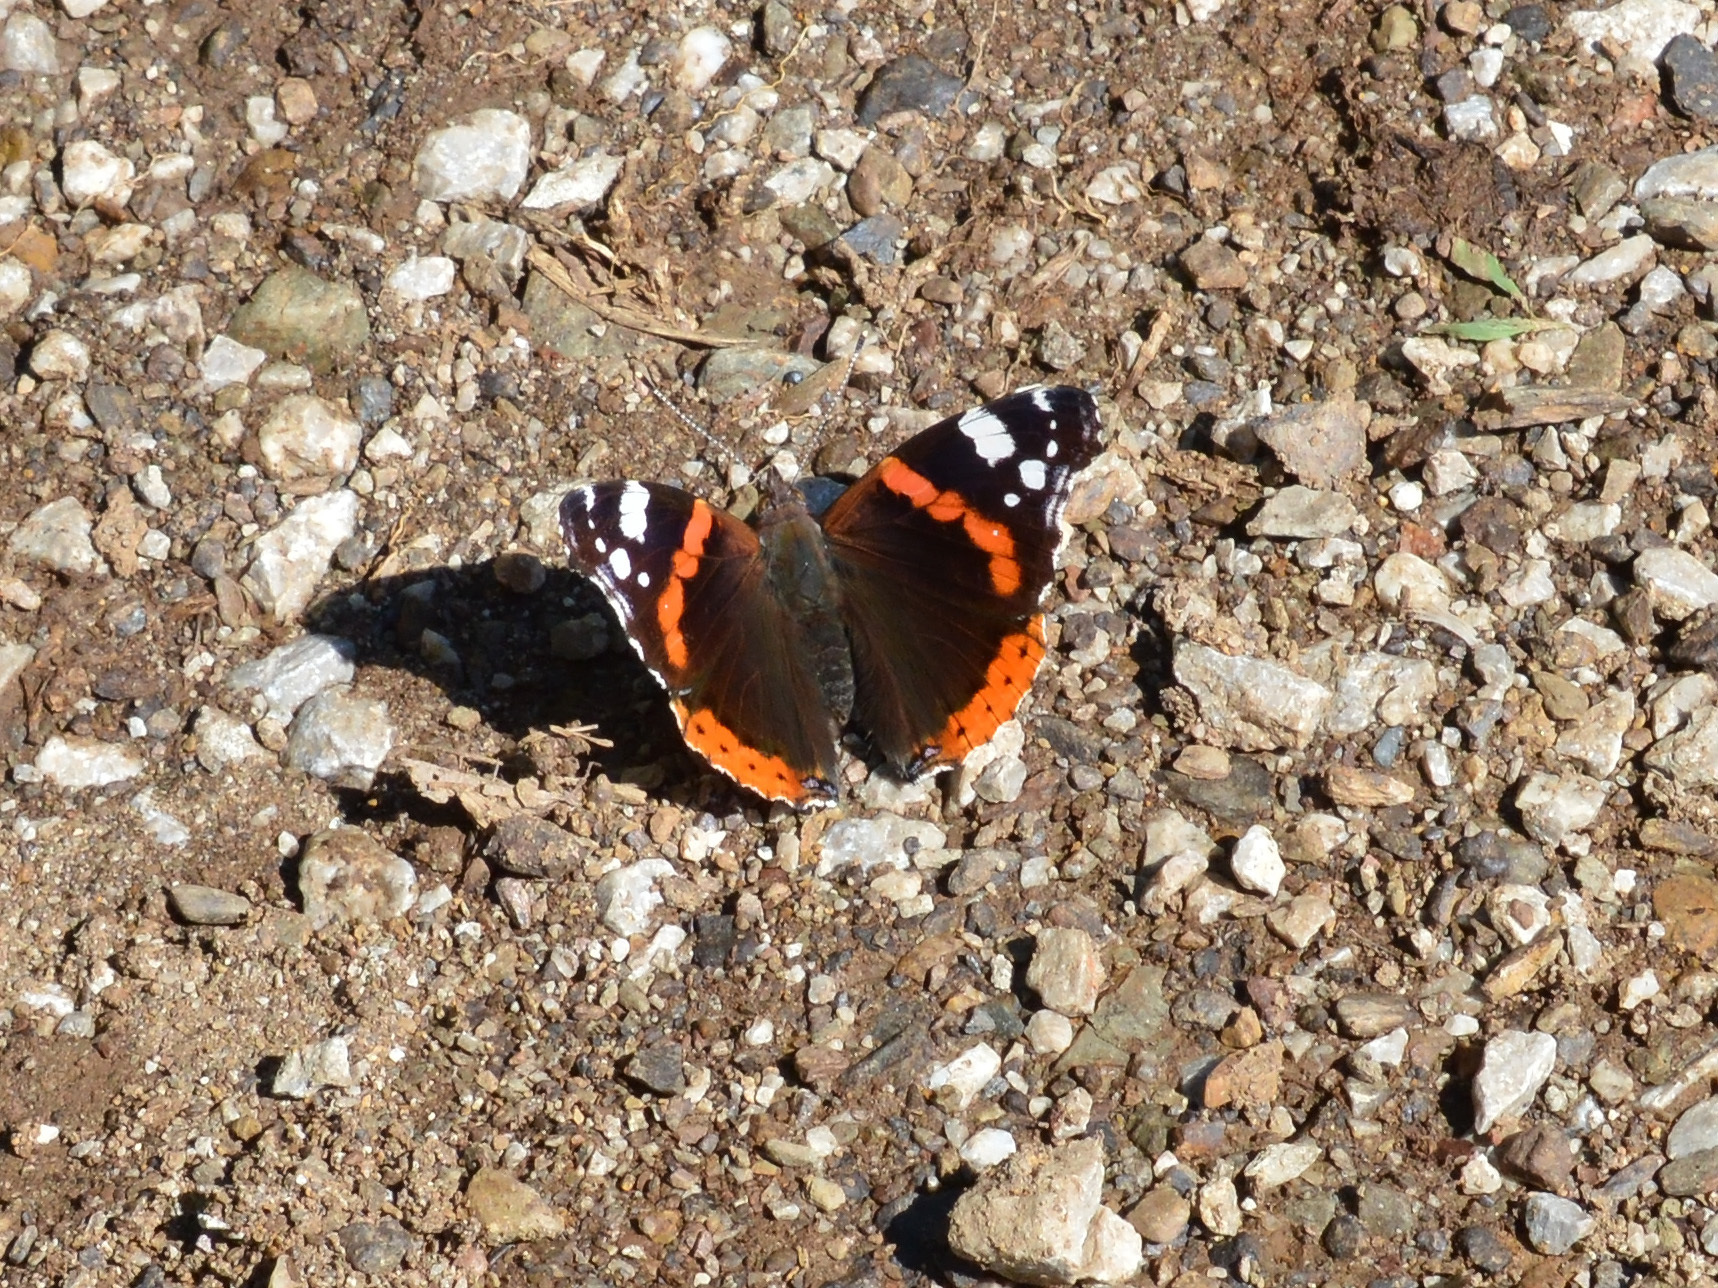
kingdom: Animalia
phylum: Arthropoda
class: Insecta
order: Lepidoptera
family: Nymphalidae
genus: Vanessa
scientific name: Vanessa atalanta
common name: Red admiral
